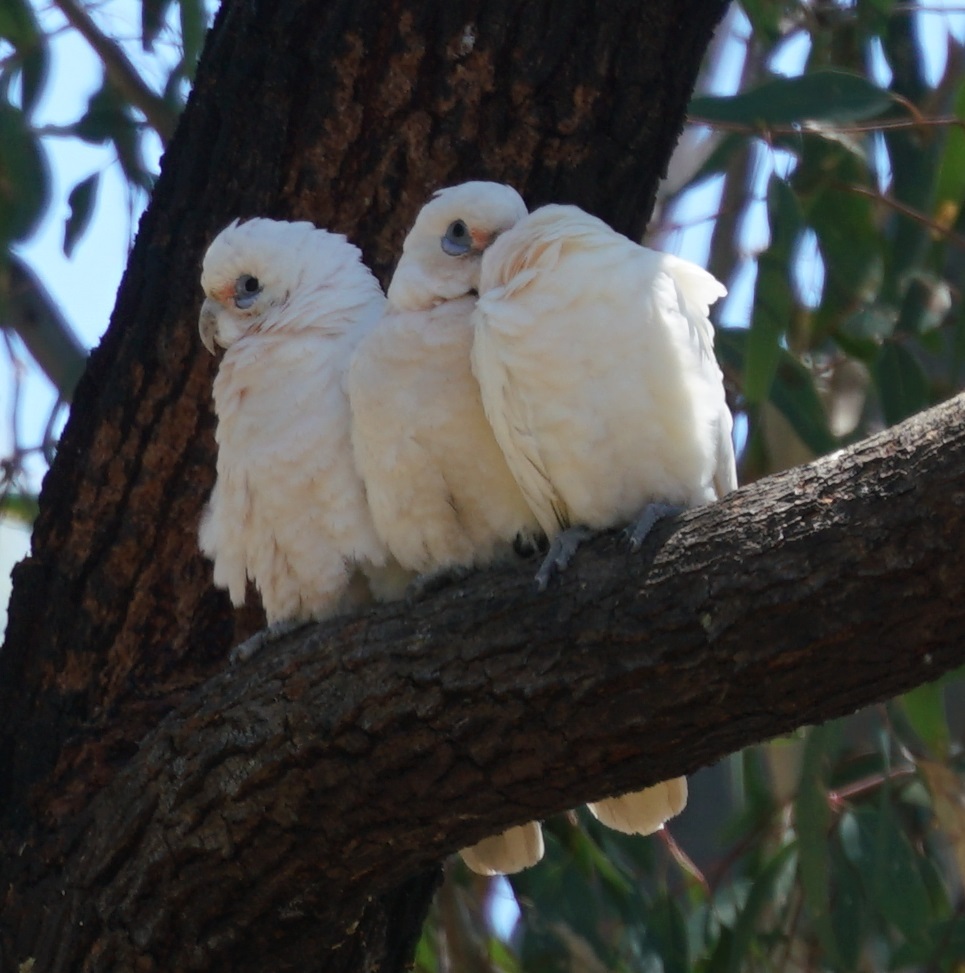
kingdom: Animalia
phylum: Chordata
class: Aves
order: Psittaciformes
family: Psittacidae
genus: Cacatua
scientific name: Cacatua sanguinea
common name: Little corella
